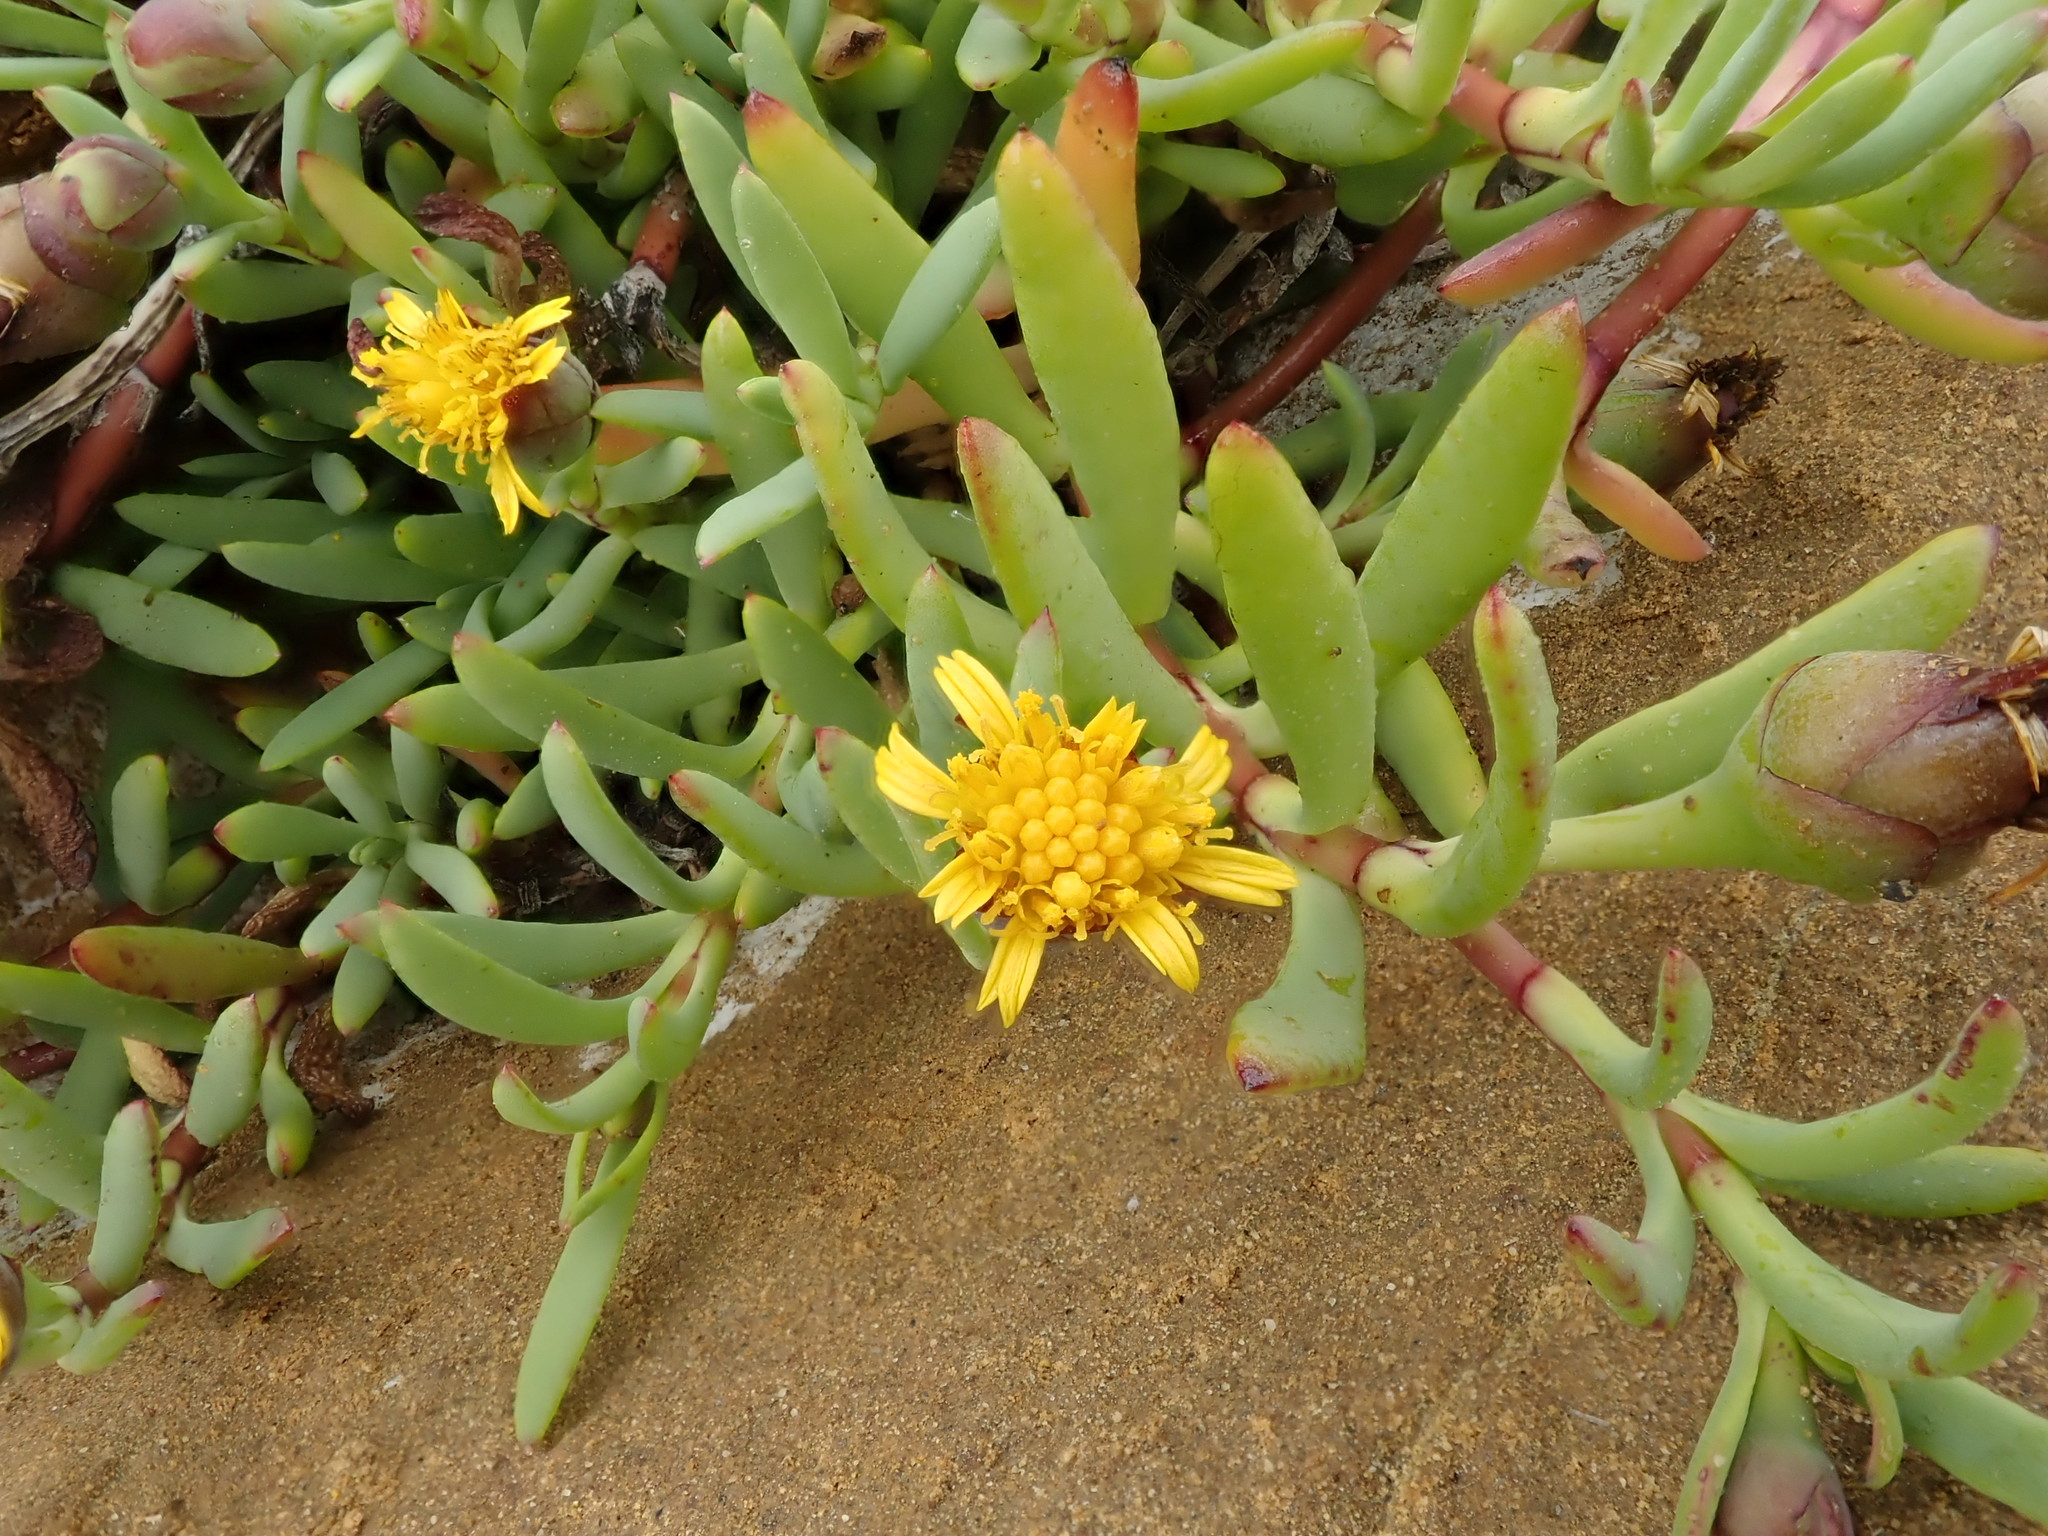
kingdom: Plantae
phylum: Tracheophyta
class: Magnoliopsida
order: Asterales
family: Asteraceae
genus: Jaumea
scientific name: Jaumea carnosa
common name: Fleshy jaumea
